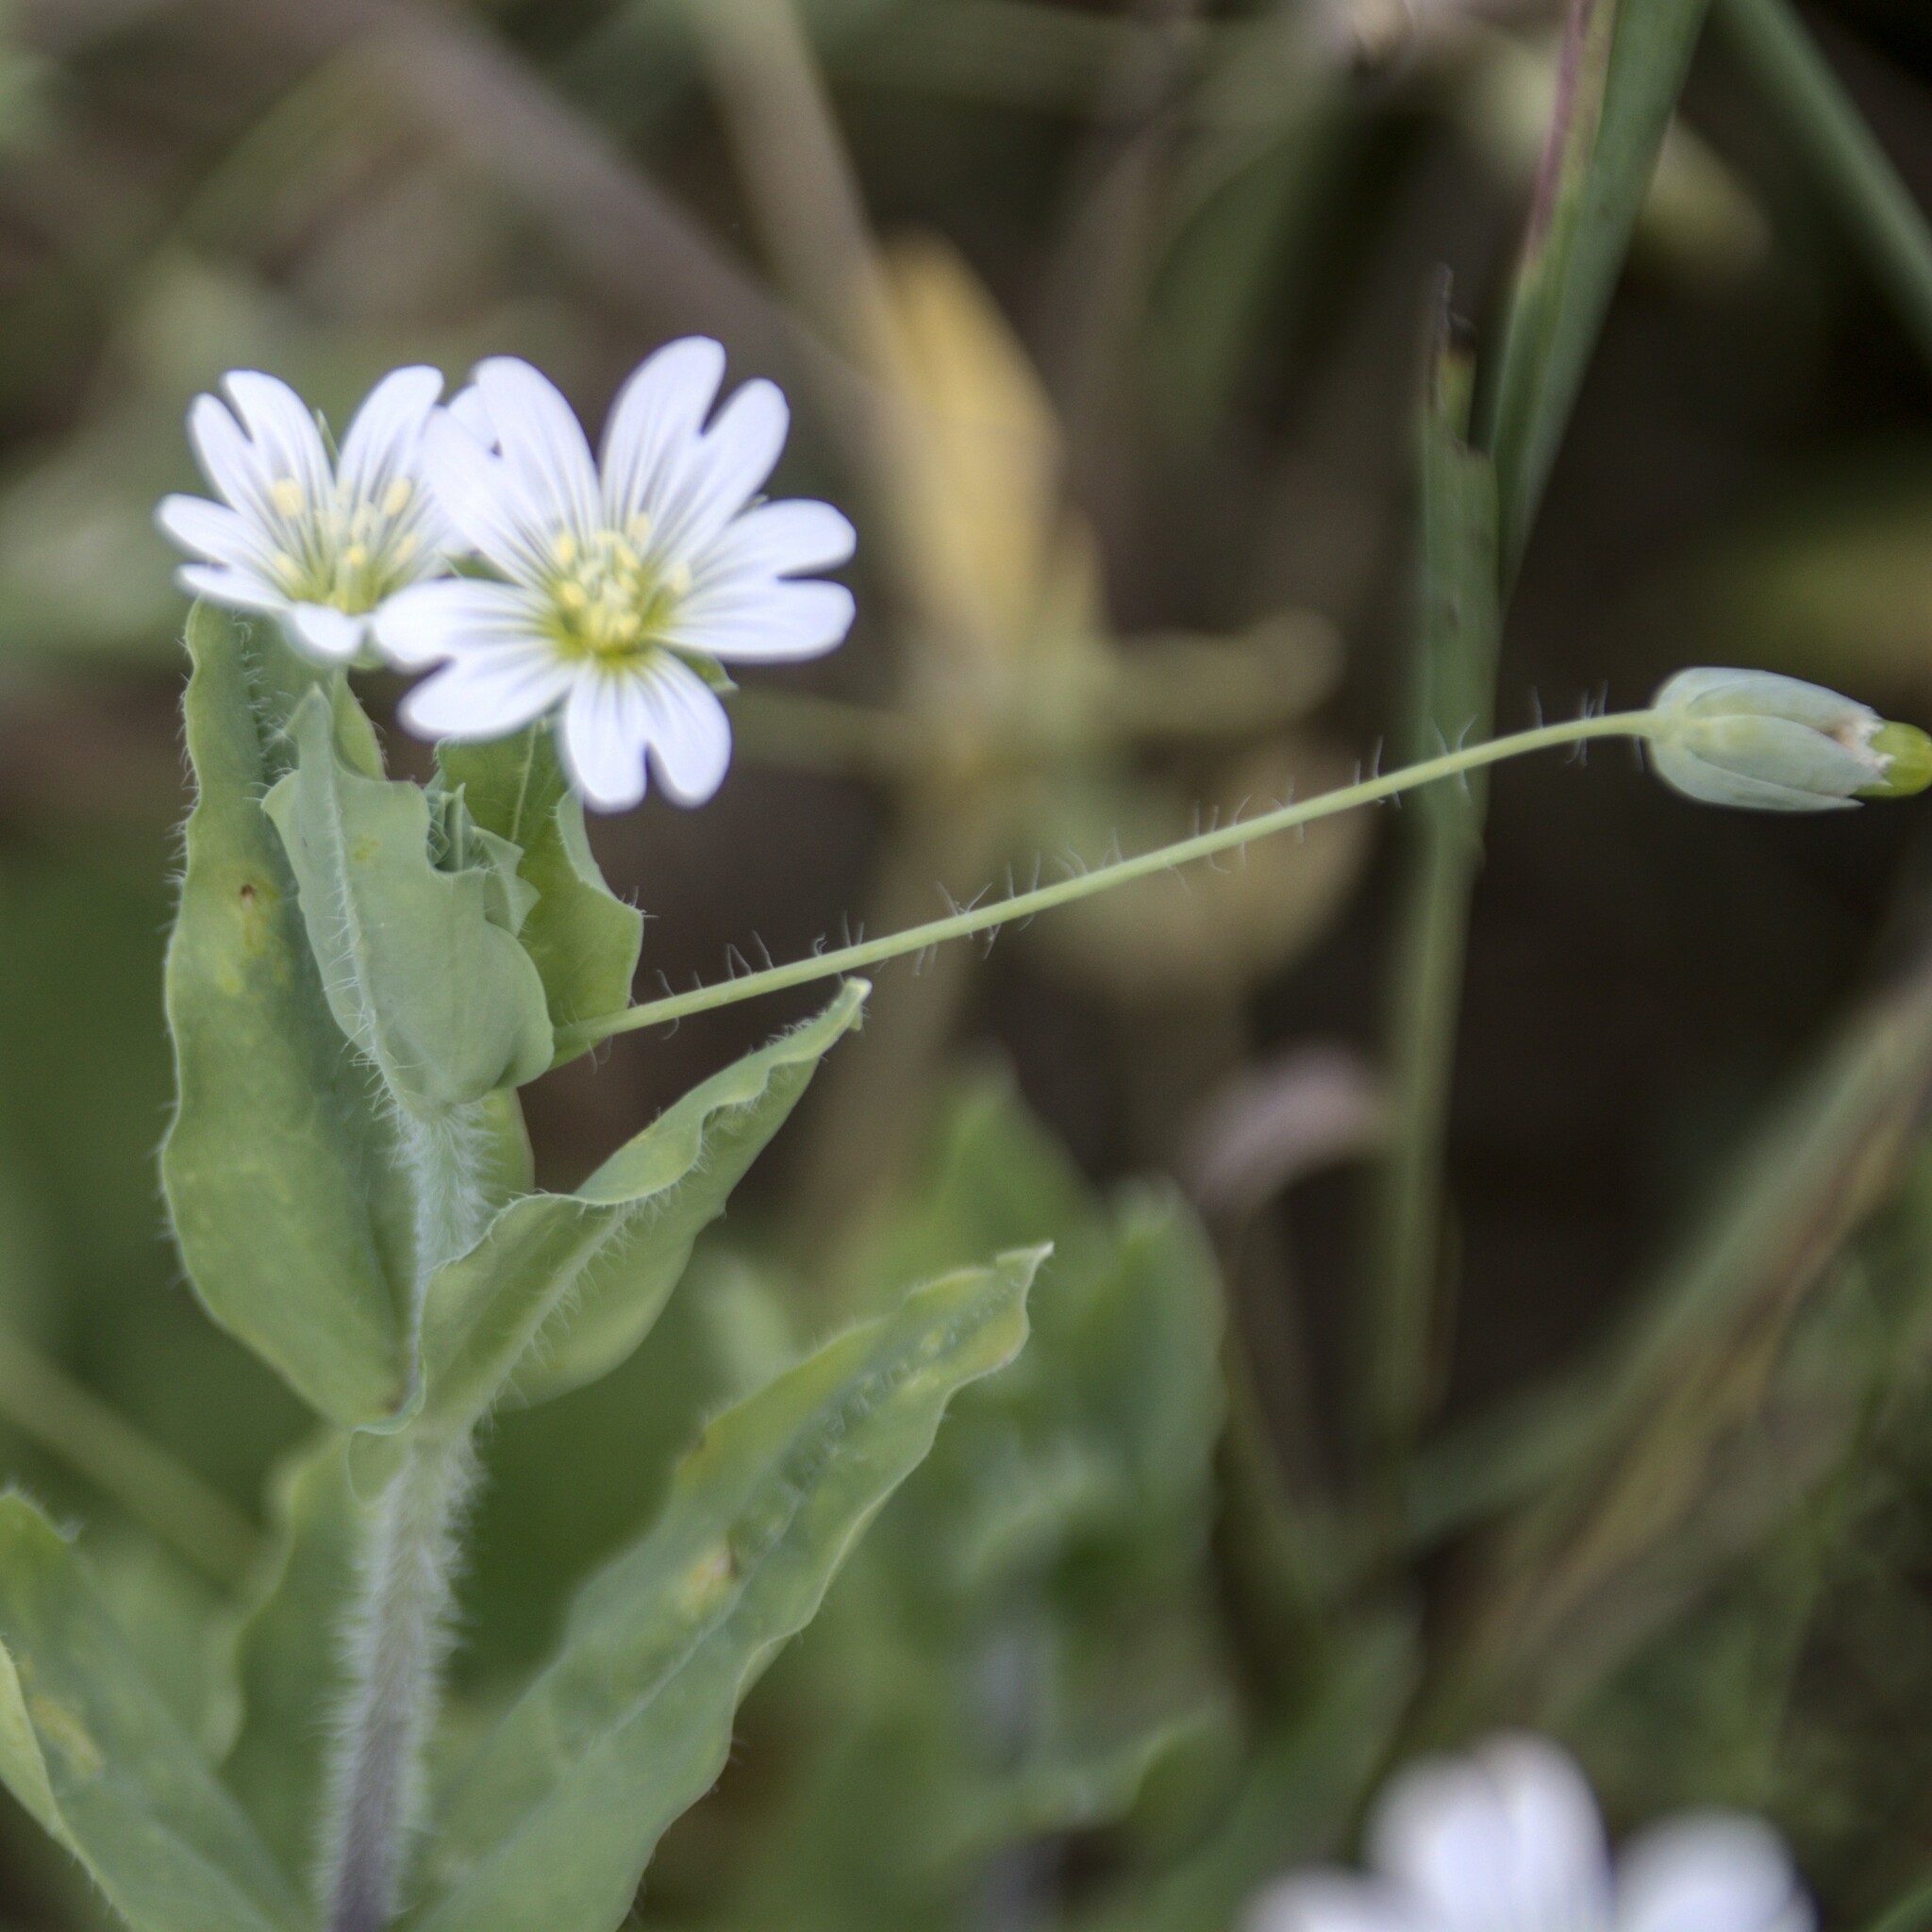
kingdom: Plantae
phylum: Tracheophyta
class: Magnoliopsida
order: Caryophyllales
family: Caryophyllaceae
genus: Cerastium
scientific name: Cerastium davuricum
